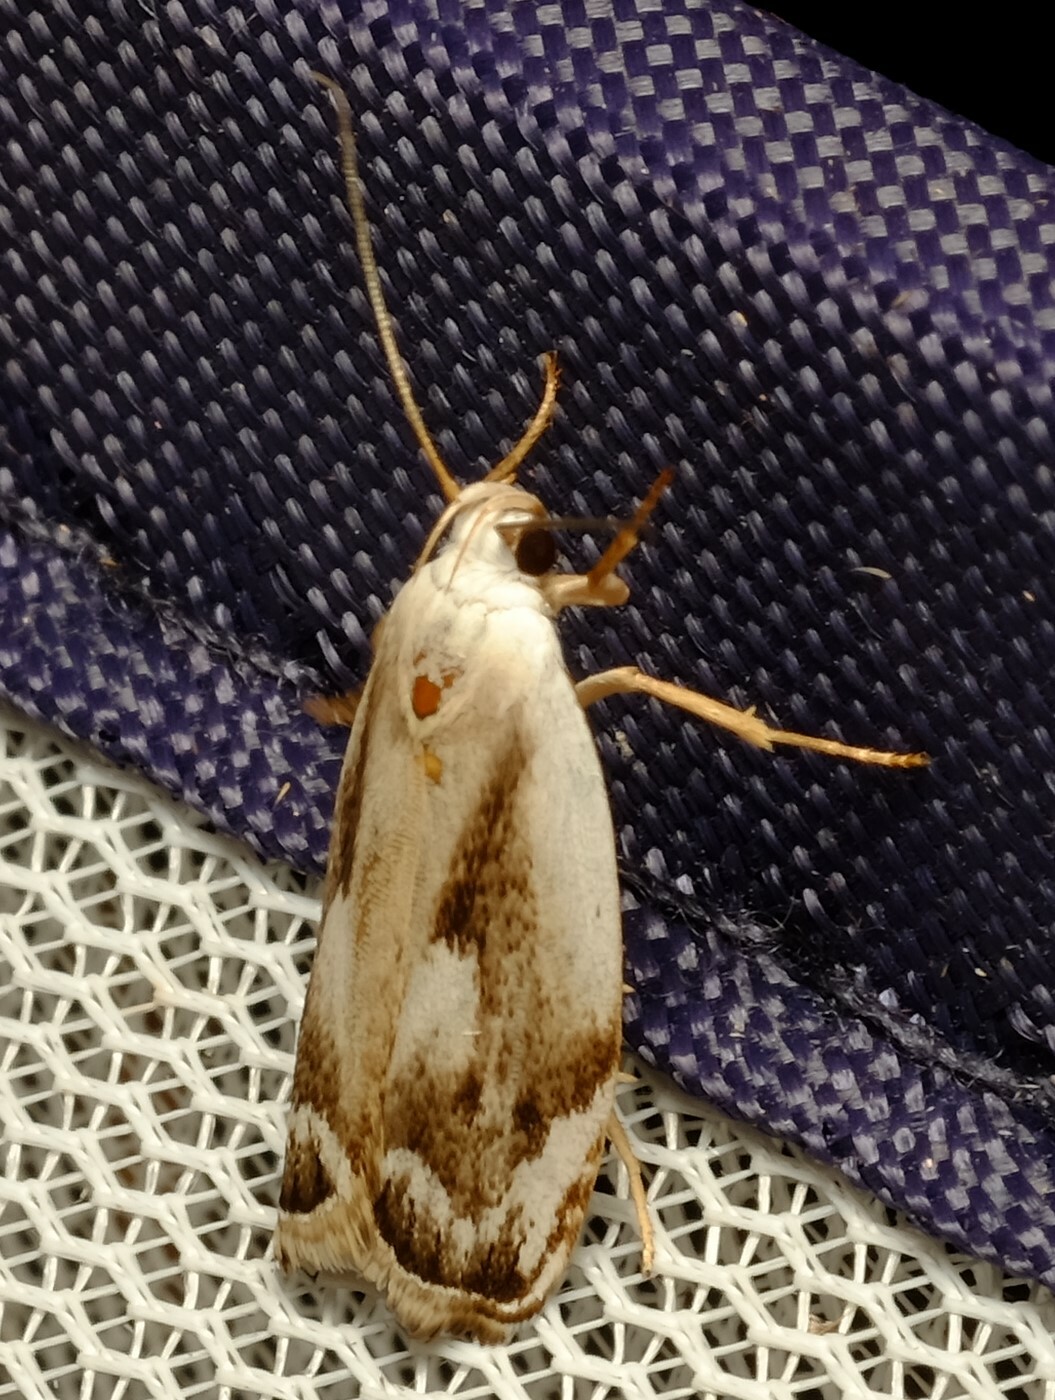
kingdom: Animalia
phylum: Arthropoda
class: Insecta
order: Lepidoptera
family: Xyloryctidae
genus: Plectophila
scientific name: Plectophila discalis
